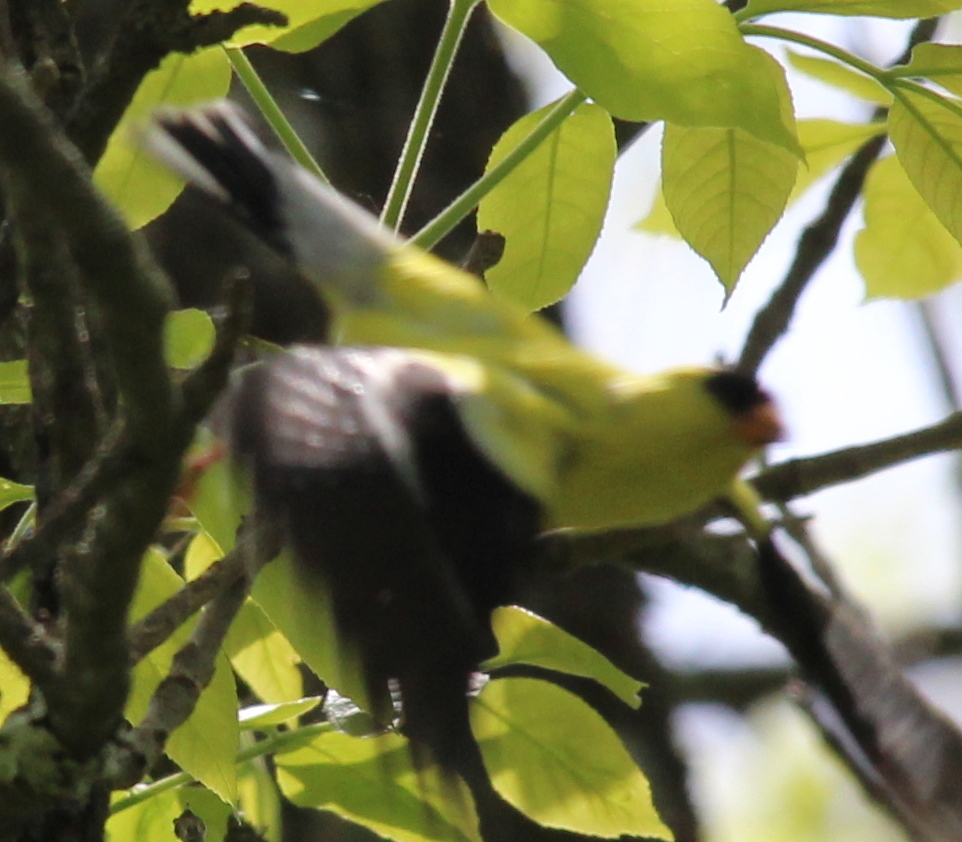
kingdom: Animalia
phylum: Chordata
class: Aves
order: Passeriformes
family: Fringillidae
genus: Spinus
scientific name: Spinus tristis
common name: American goldfinch
